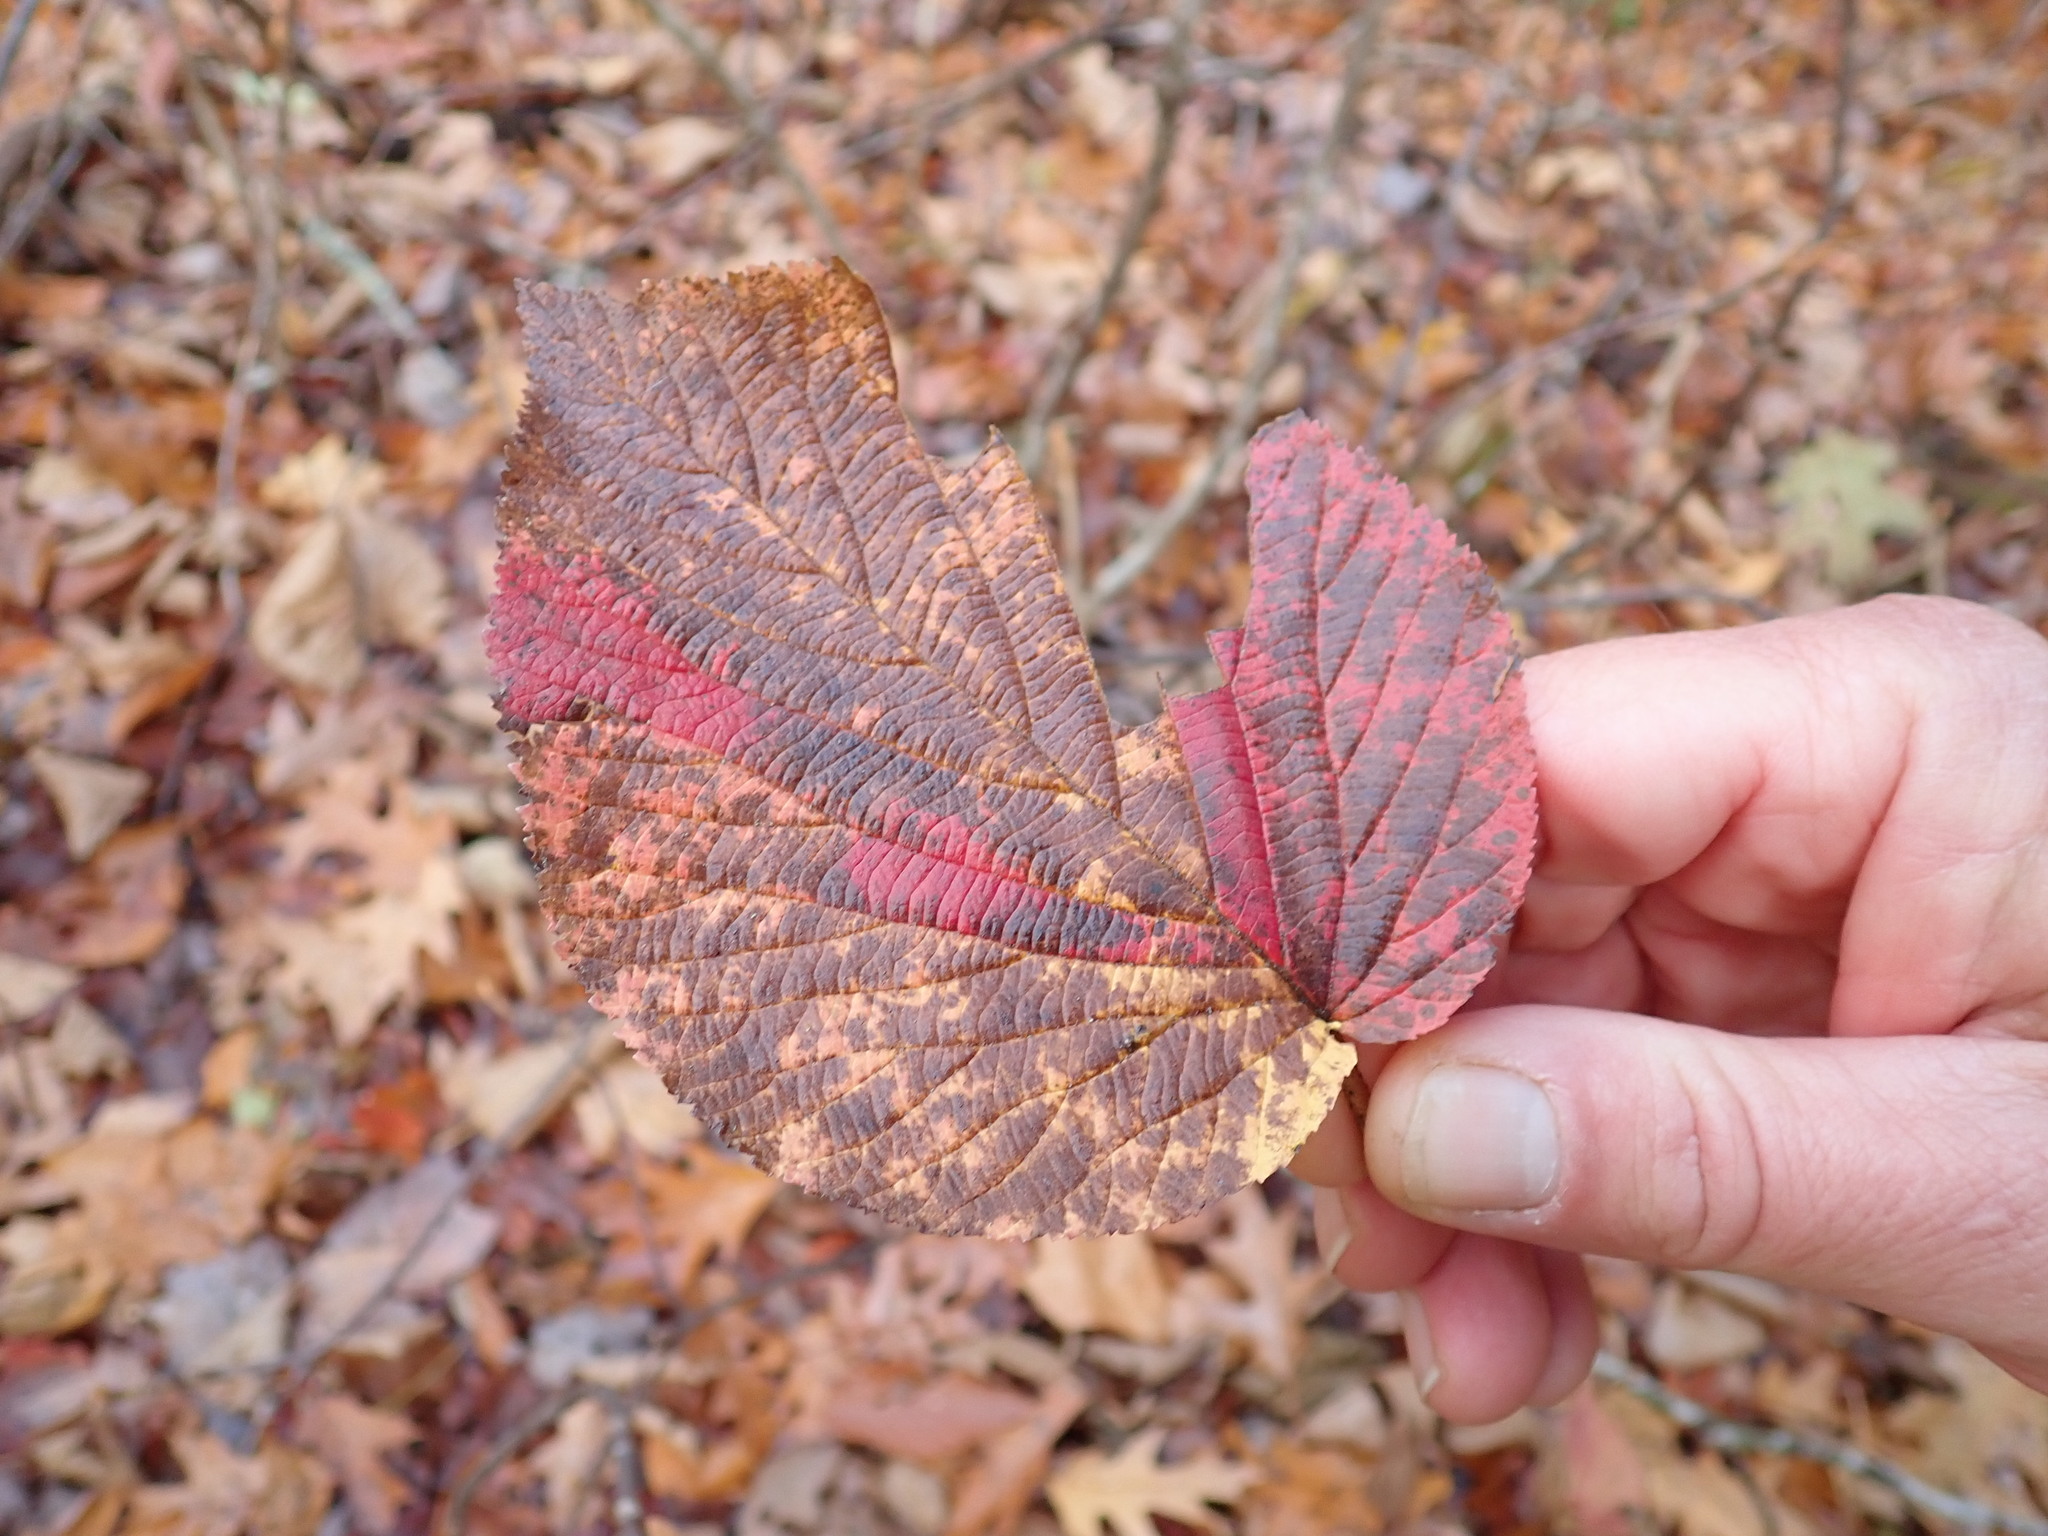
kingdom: Plantae
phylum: Tracheophyta
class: Magnoliopsida
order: Dipsacales
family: Viburnaceae
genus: Viburnum
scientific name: Viburnum lantanoides
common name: Hobblebush
